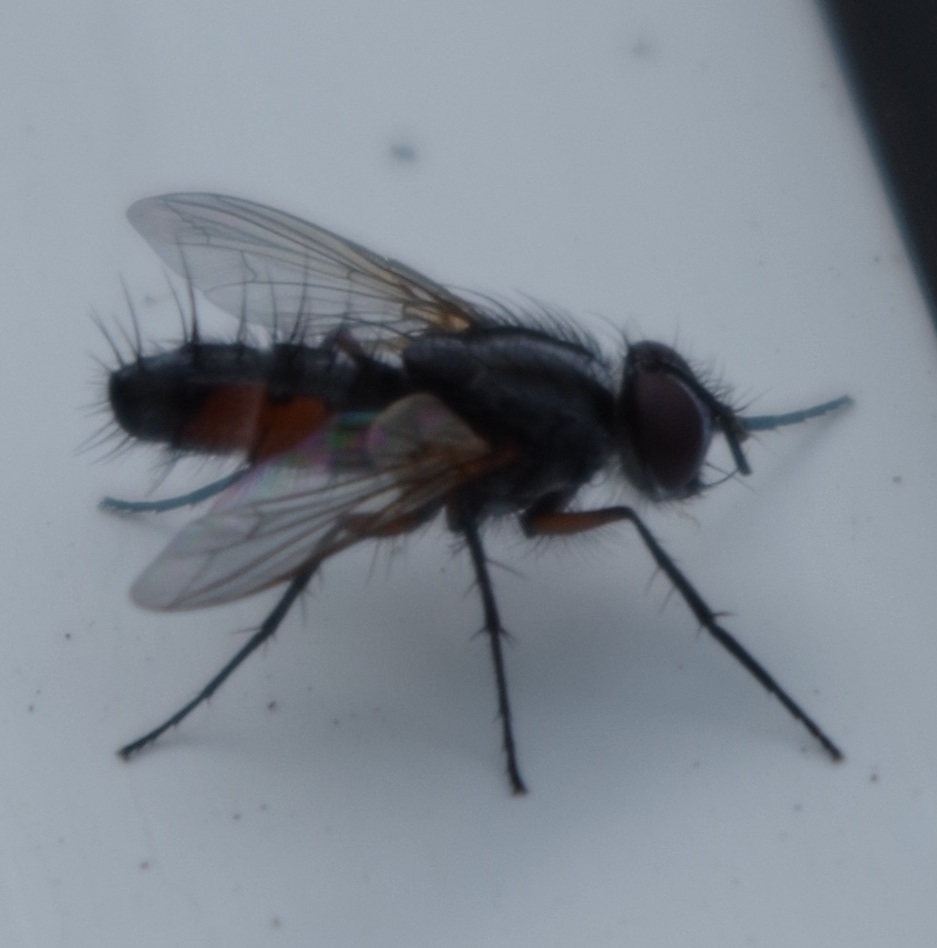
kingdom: Animalia
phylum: Arthropoda
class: Insecta
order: Diptera
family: Tachinidae
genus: Mintho
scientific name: Mintho rufiventris
